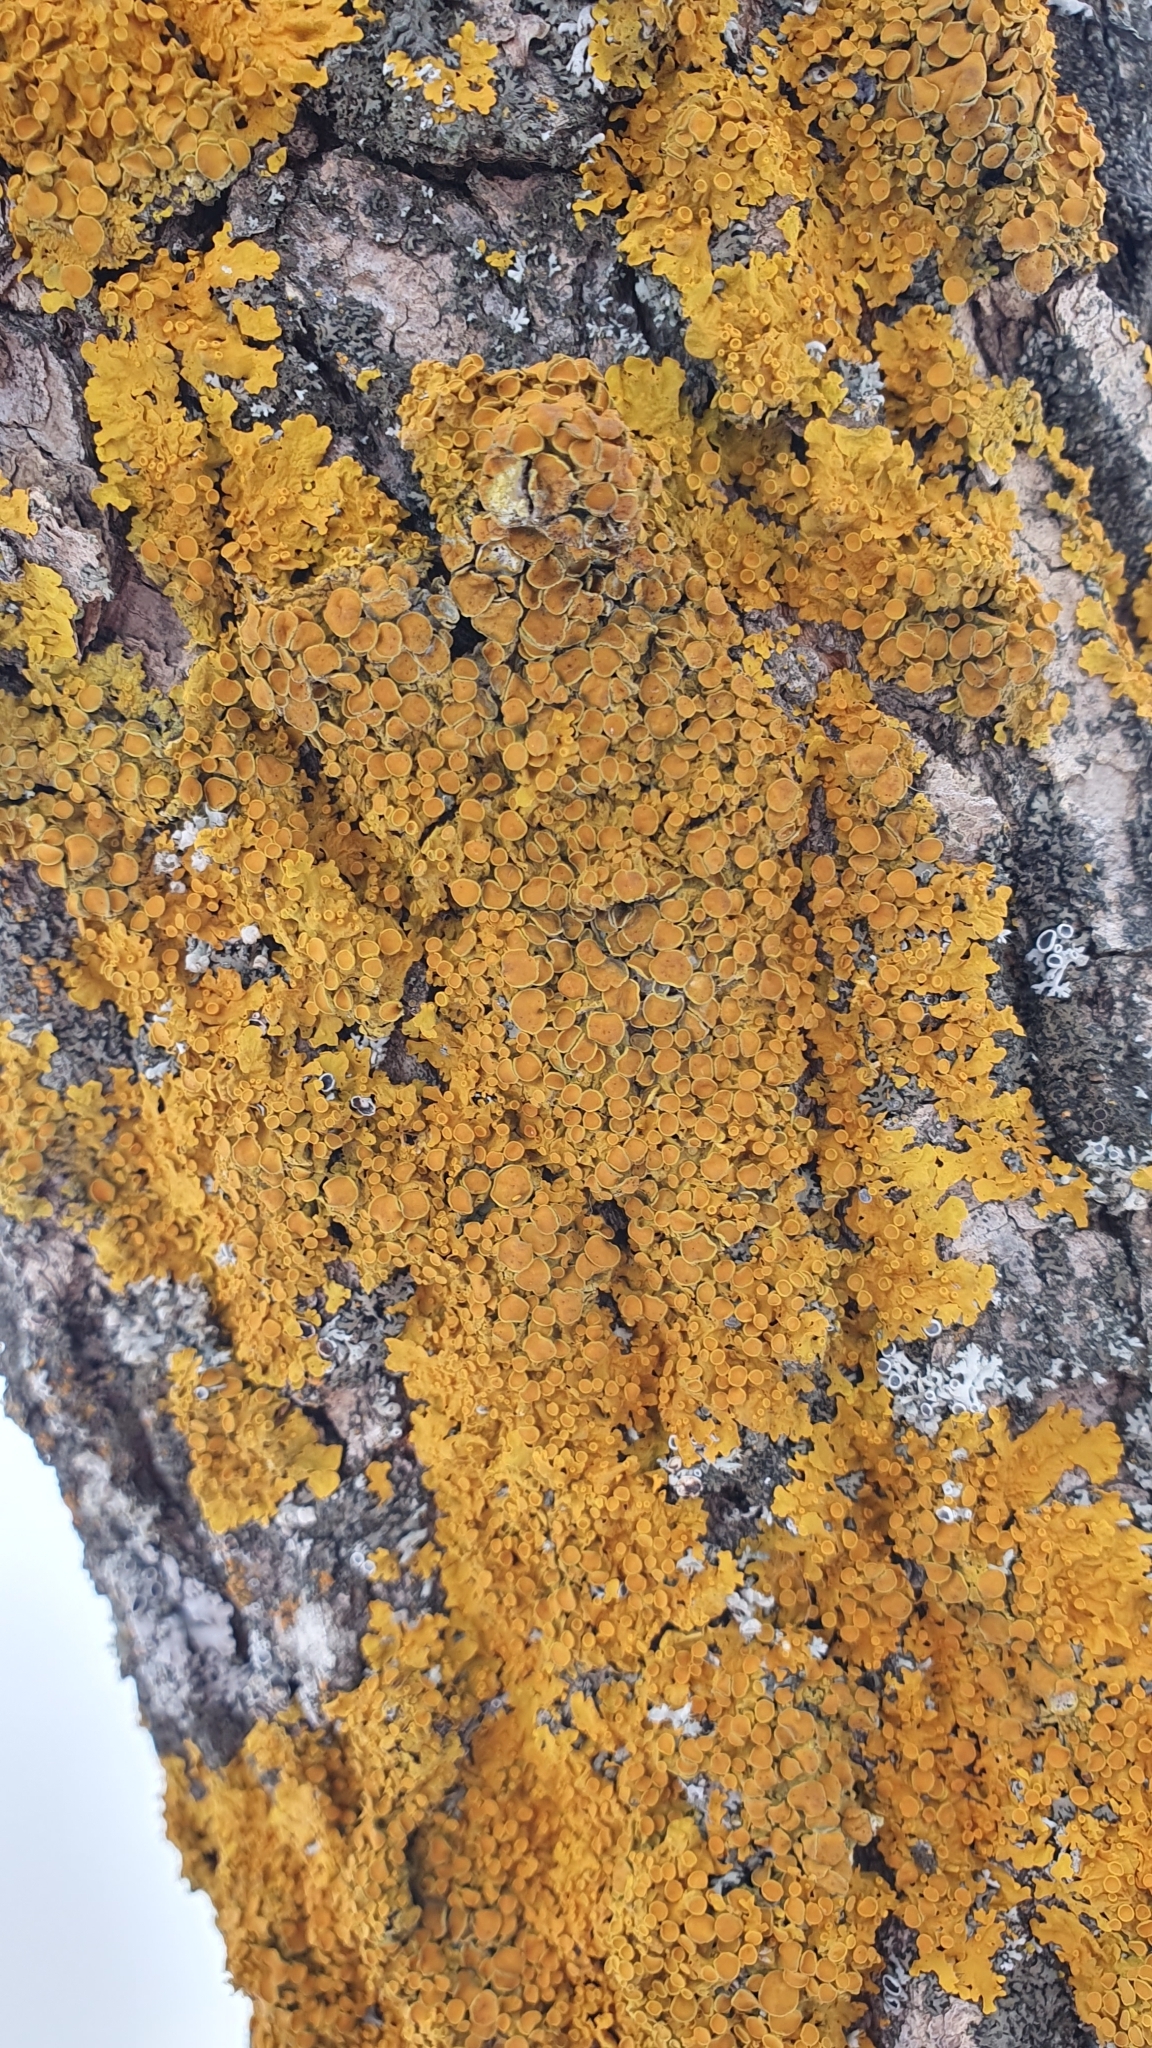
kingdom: Fungi
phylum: Ascomycota
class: Lecanoromycetes
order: Teloschistales
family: Teloschistaceae
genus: Xanthoria
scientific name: Xanthoria parietina
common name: Common orange lichen
